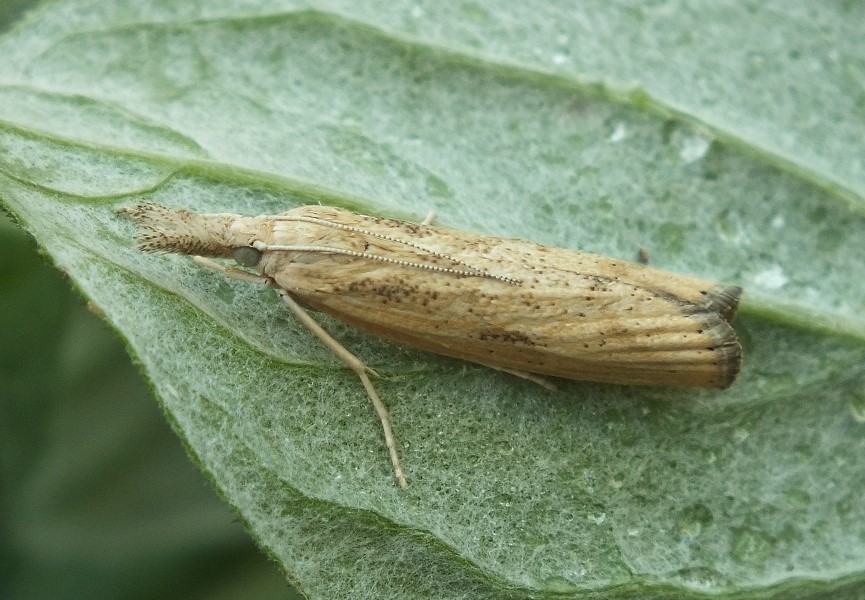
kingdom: Animalia
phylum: Arthropoda
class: Insecta
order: Lepidoptera
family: Crambidae
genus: Agriphila
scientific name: Agriphila inquinatella
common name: Barred grass-veneer
